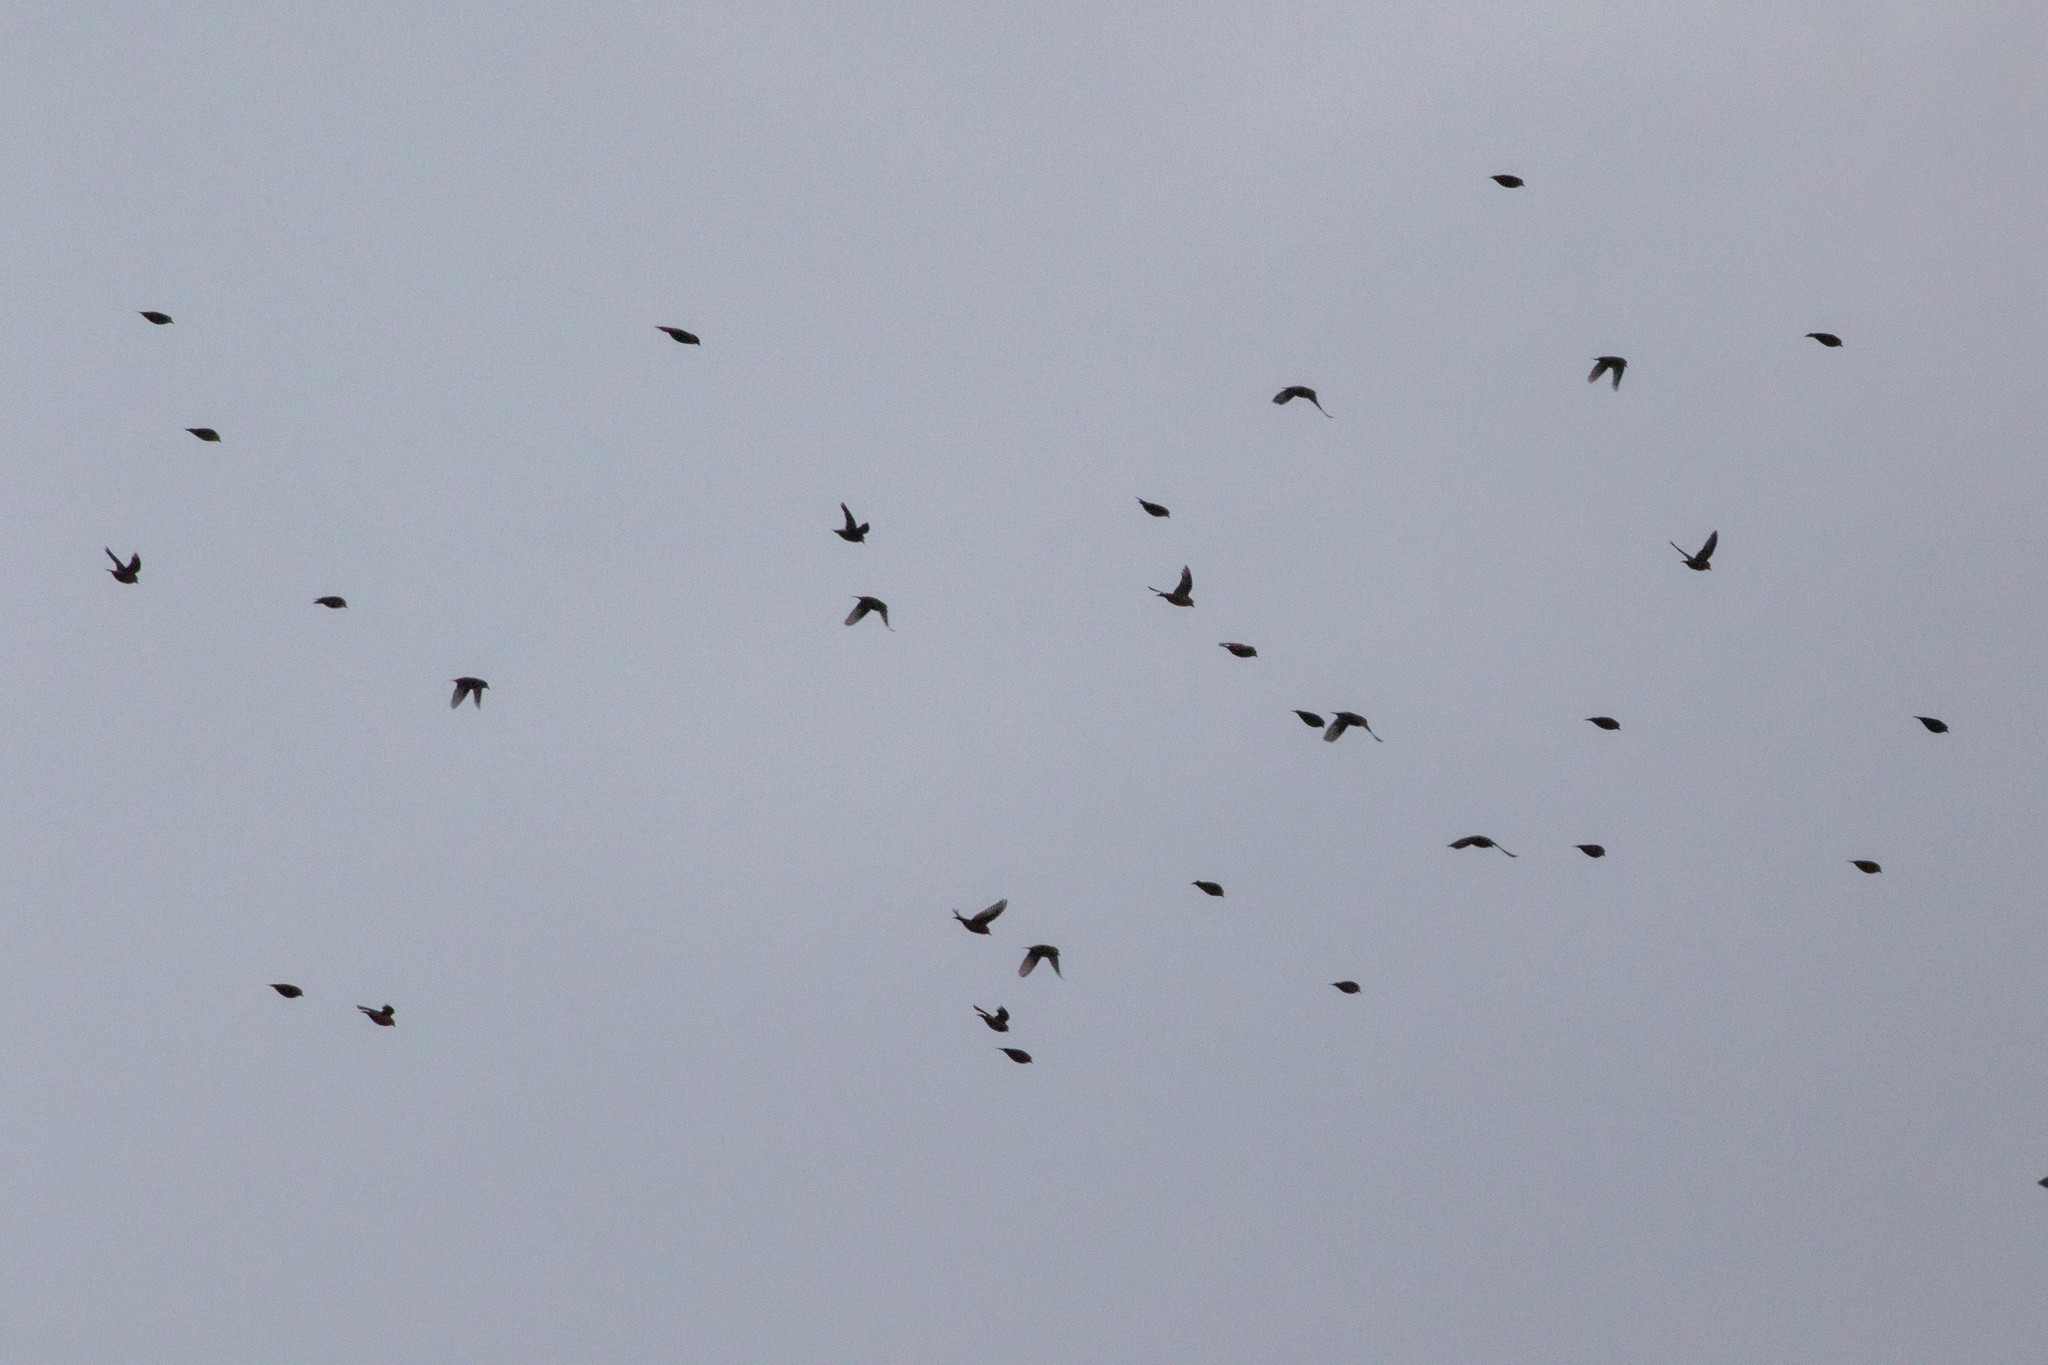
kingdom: Animalia
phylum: Chordata
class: Aves
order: Passeriformes
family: Fringillidae
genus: Loxia
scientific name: Loxia curvirostra
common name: Red crossbill
